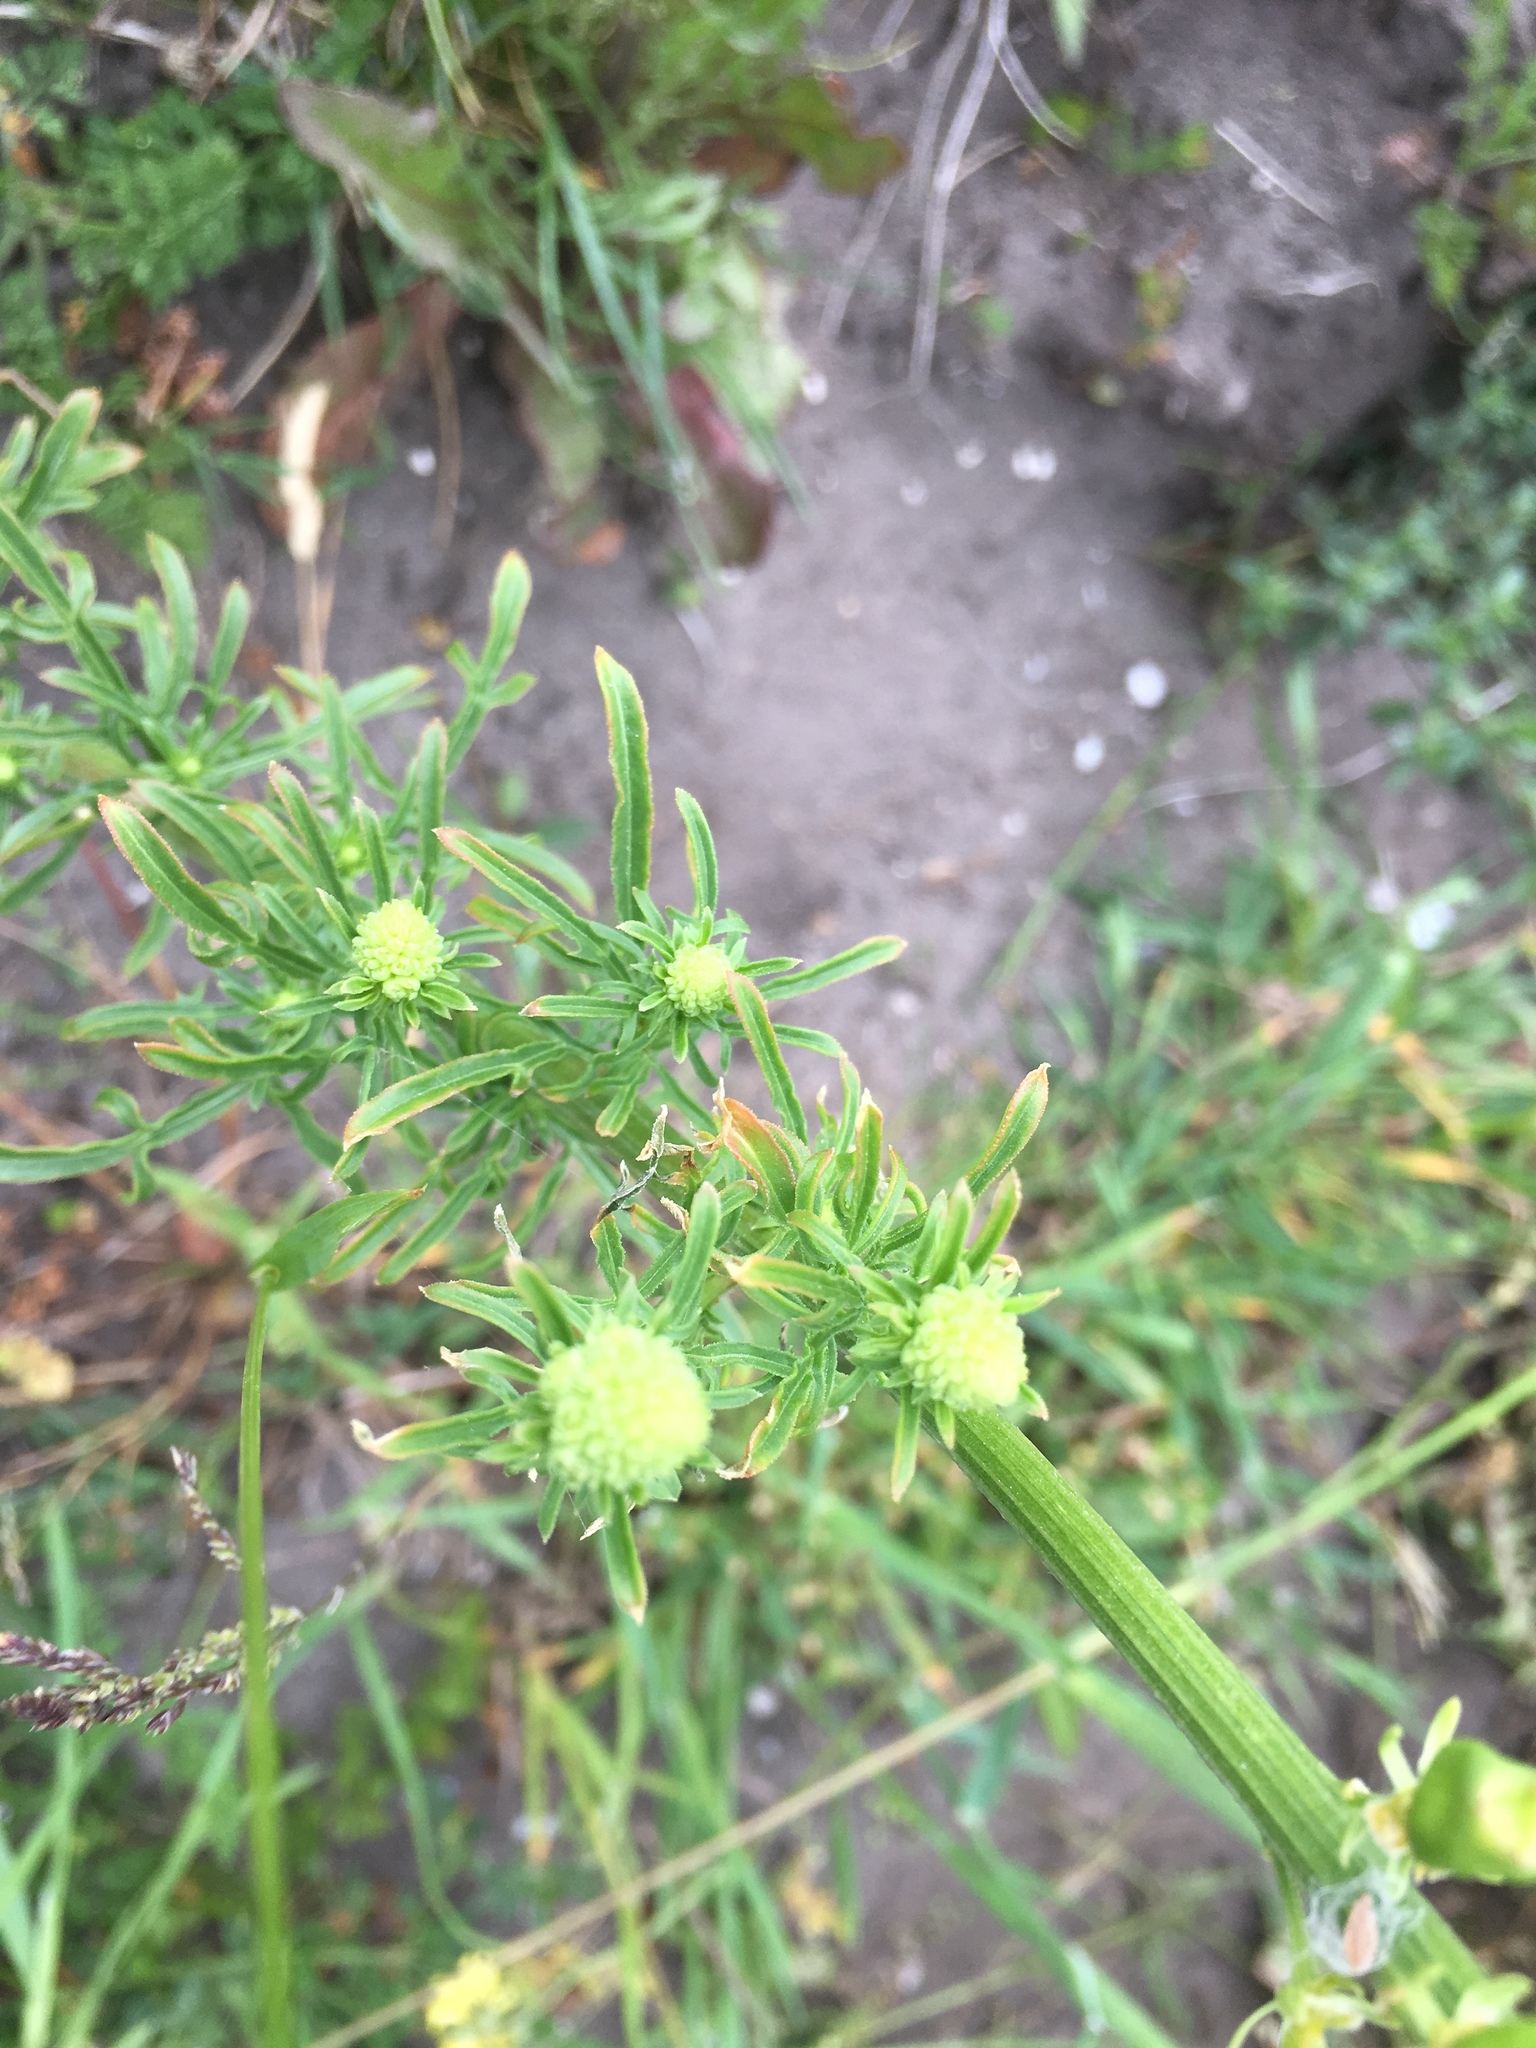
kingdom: Plantae
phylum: Tracheophyta
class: Magnoliopsida
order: Brassicales
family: Resedaceae
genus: Reseda
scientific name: Reseda lutea
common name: Wild mignonette
